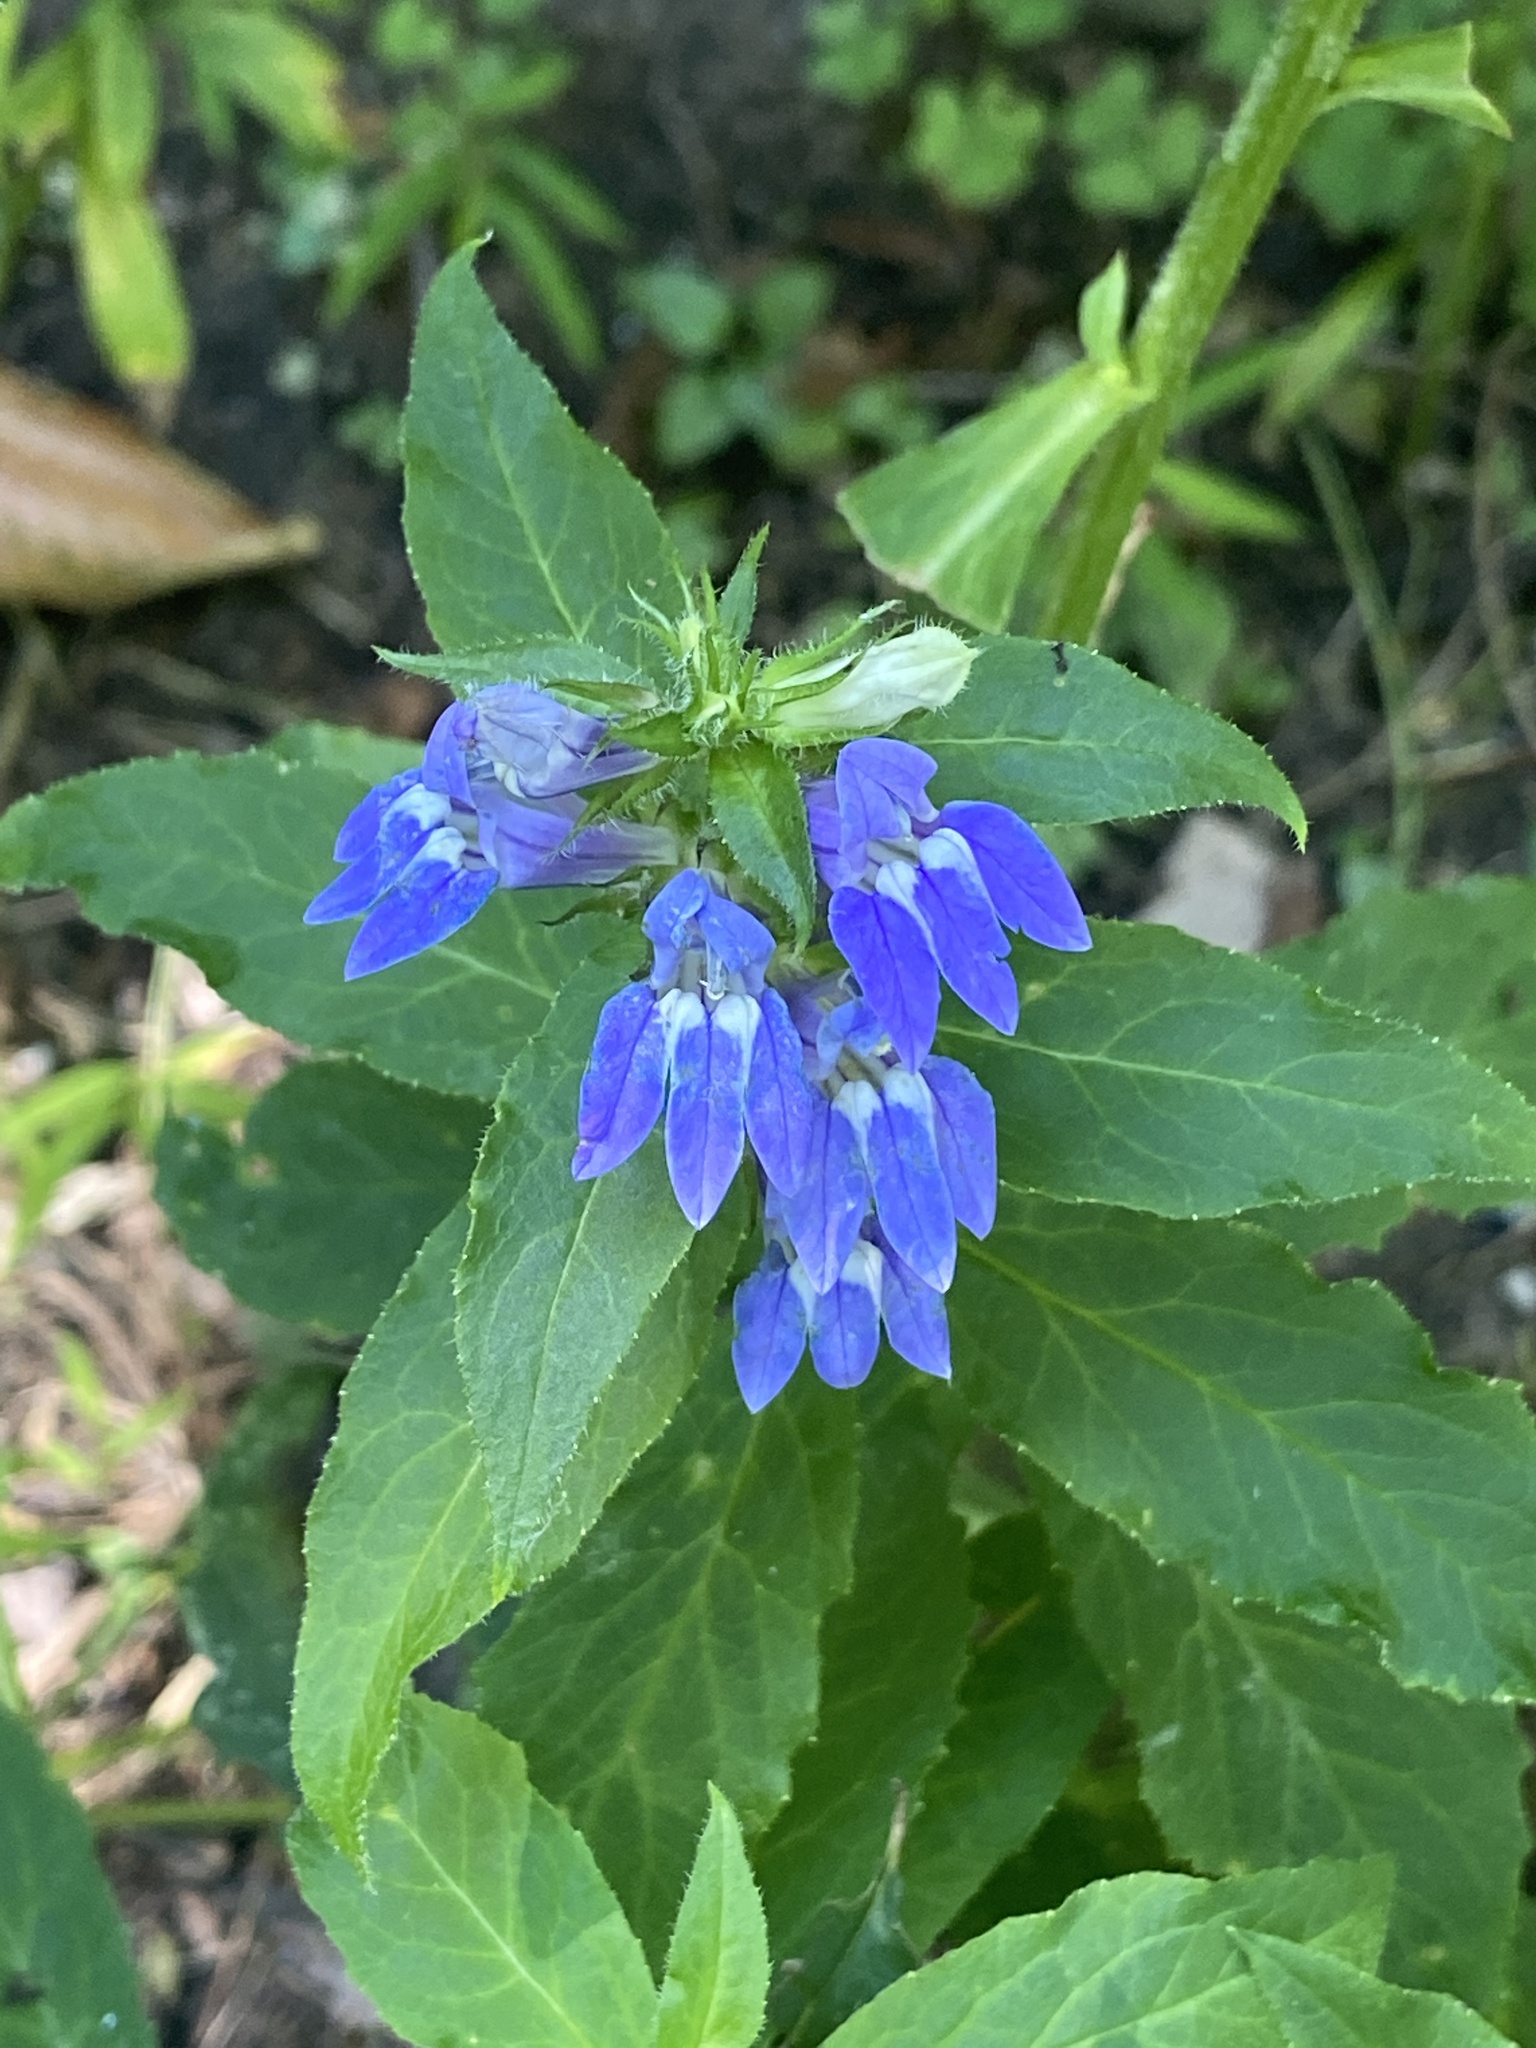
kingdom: Plantae
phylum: Tracheophyta
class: Magnoliopsida
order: Asterales
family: Campanulaceae
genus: Lobelia
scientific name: Lobelia siphilitica
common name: Great lobelia
